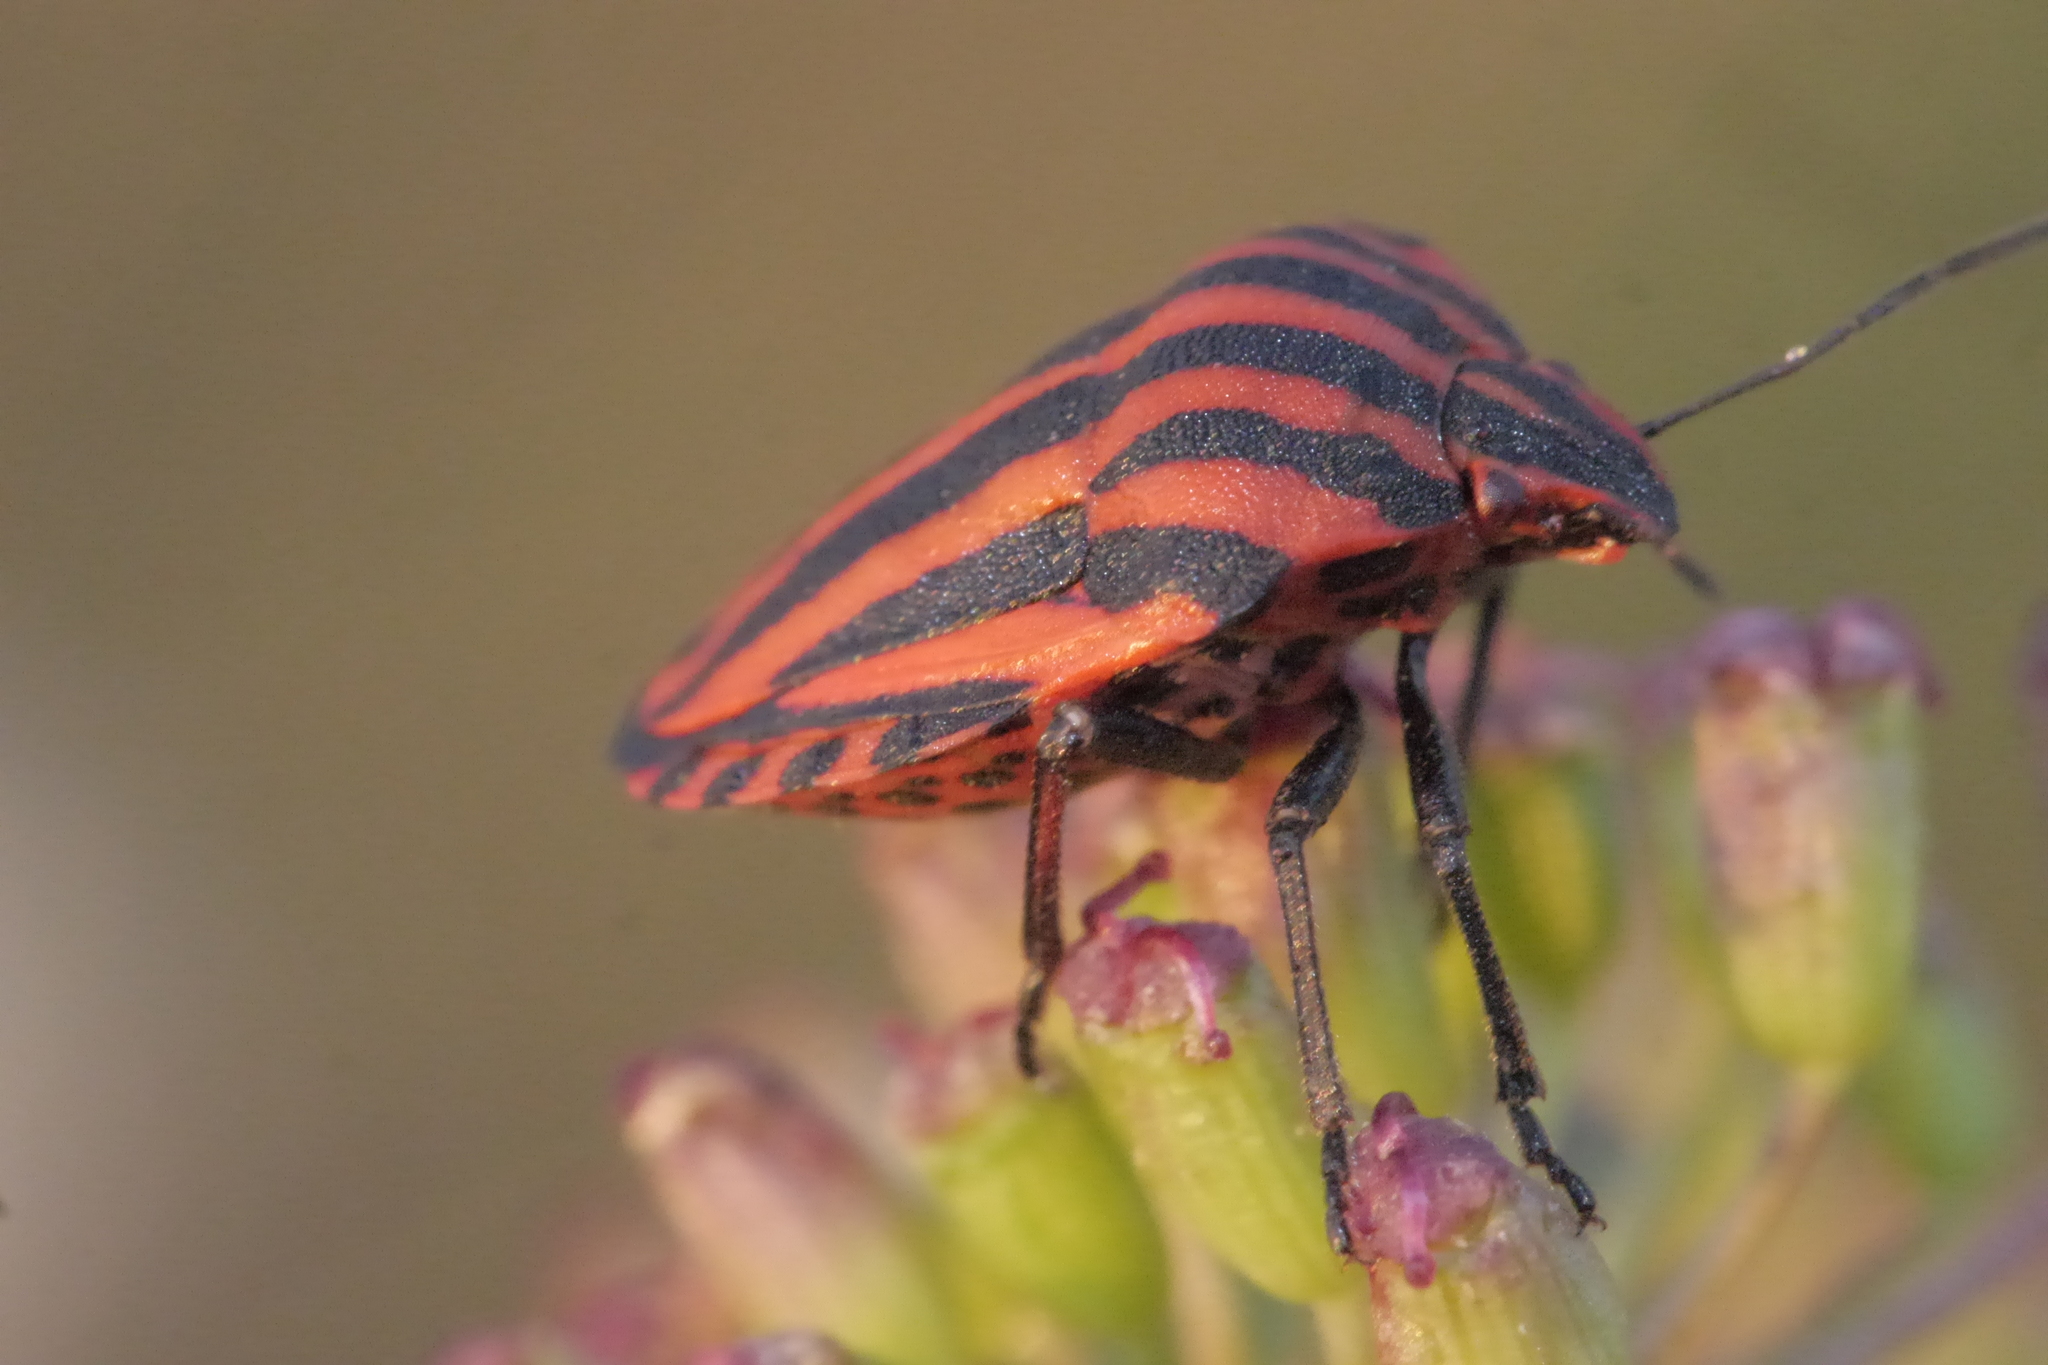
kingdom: Animalia
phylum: Arthropoda
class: Insecta
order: Hemiptera
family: Pentatomidae
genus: Graphosoma
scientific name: Graphosoma italicum
